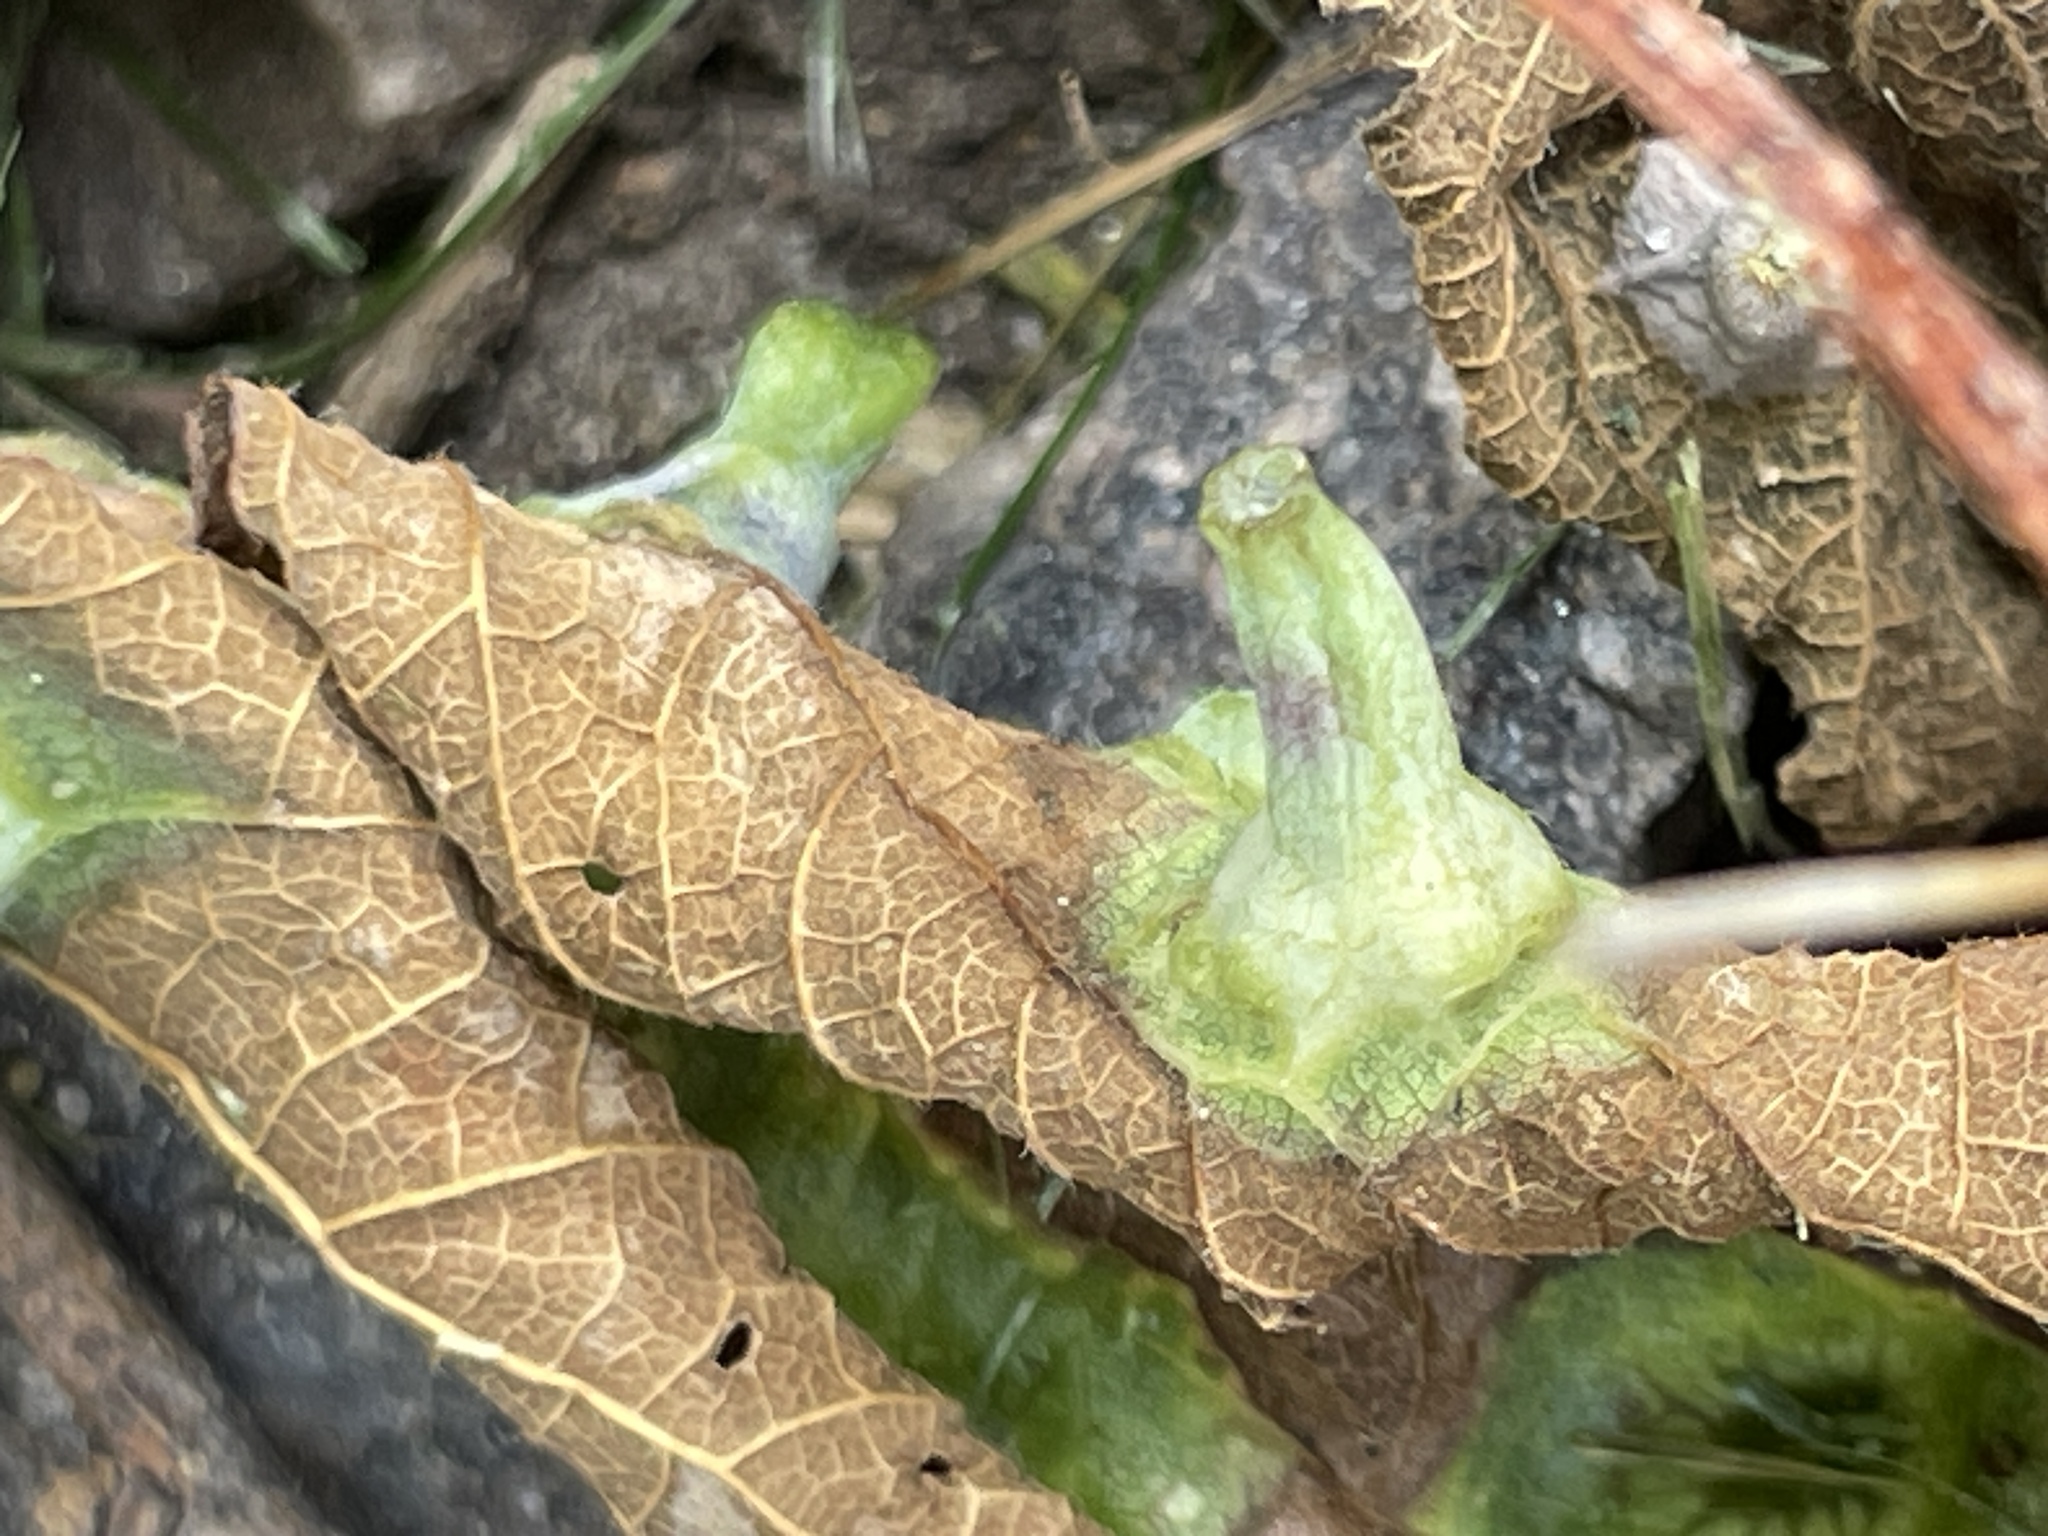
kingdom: Animalia
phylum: Arthropoda
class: Insecta
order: Hemiptera
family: Aphalaridae
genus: Pachypsylla
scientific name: Pachypsylla celtidismamma
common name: Hackberry nipplegall psyllid
